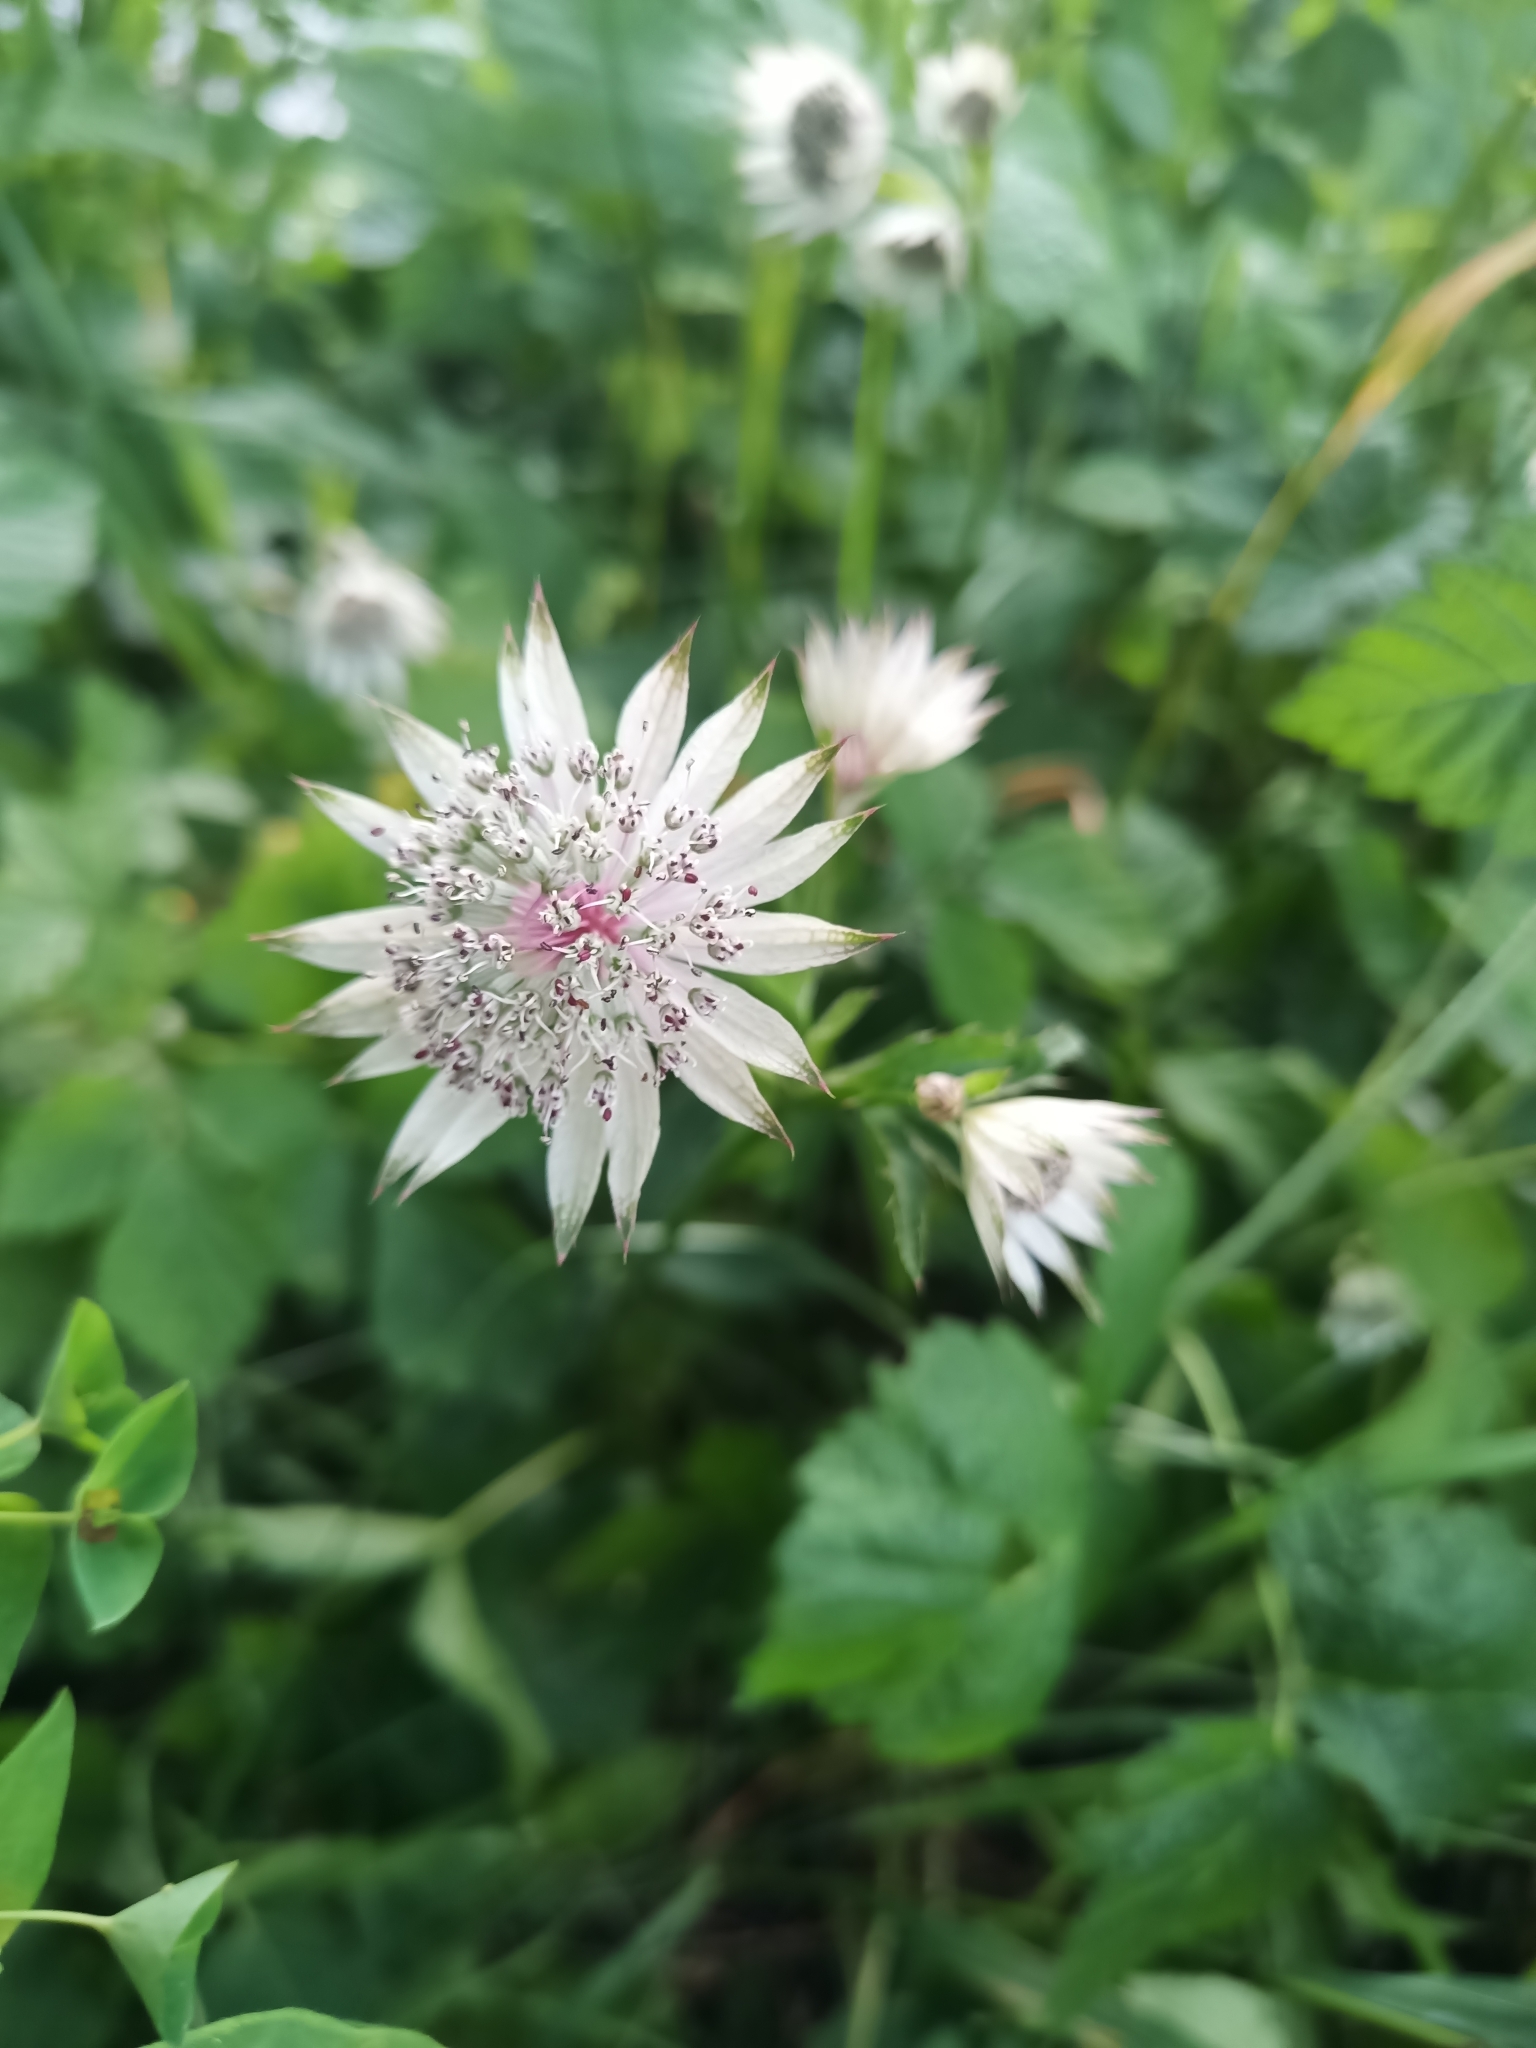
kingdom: Plantae
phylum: Tracheophyta
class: Magnoliopsida
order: Apiales
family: Apiaceae
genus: Astrantia
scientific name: Astrantia major
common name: Greater masterwort
